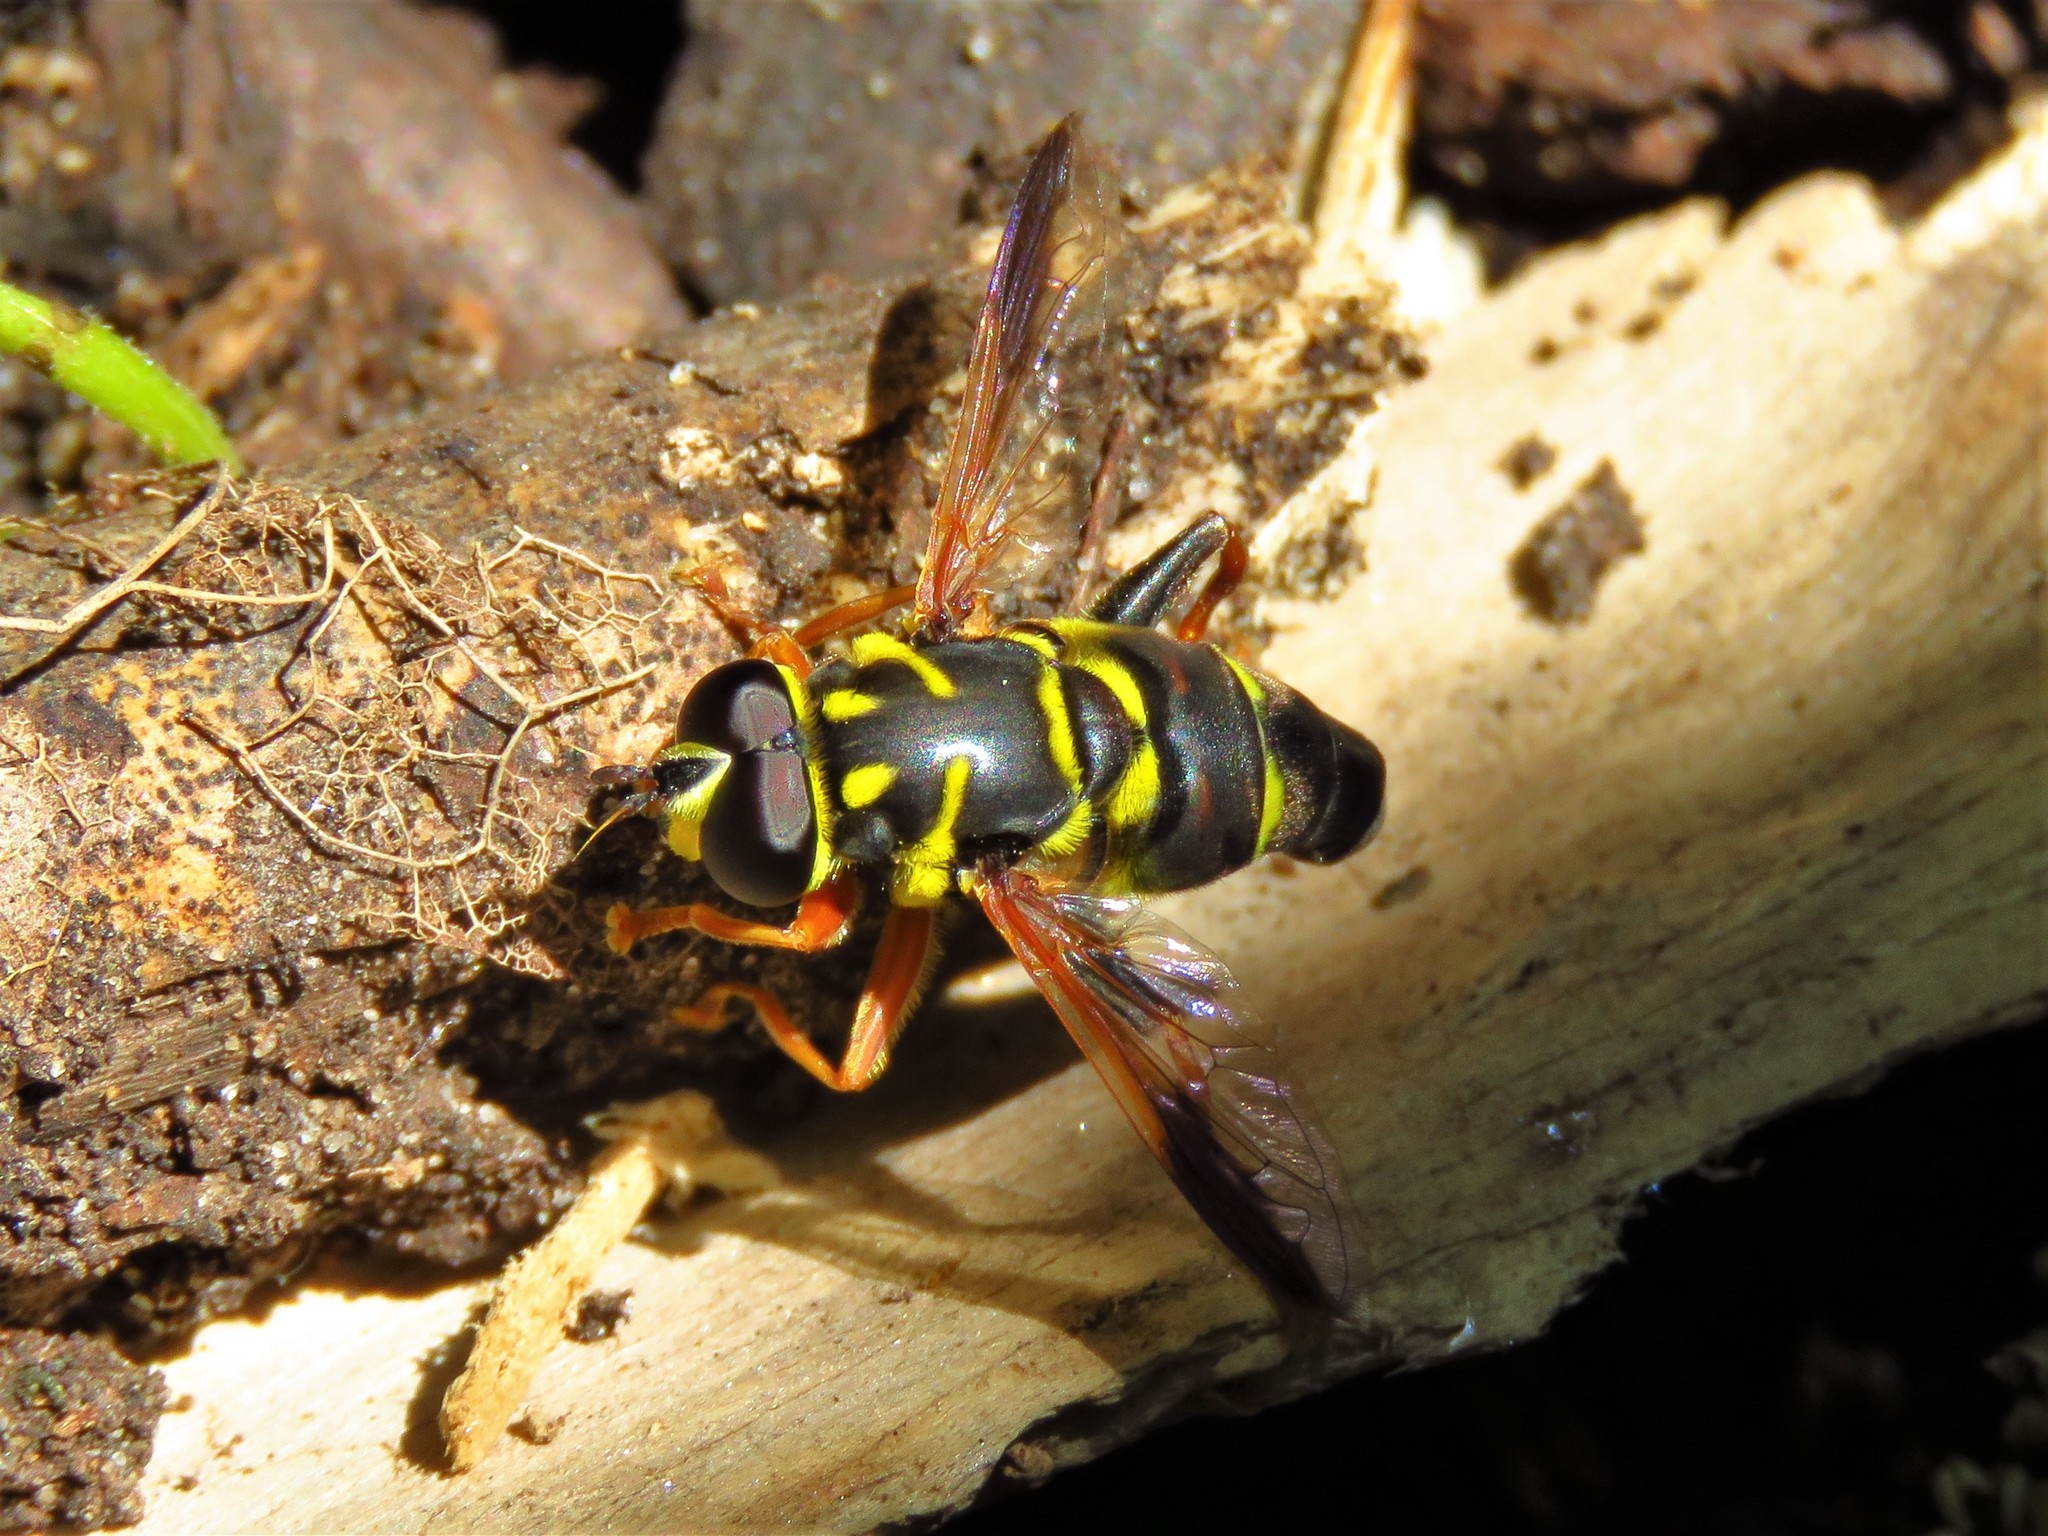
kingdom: Animalia
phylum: Arthropoda
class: Insecta
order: Diptera
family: Syrphidae
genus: Meromacrus
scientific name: Meromacrus acutus
